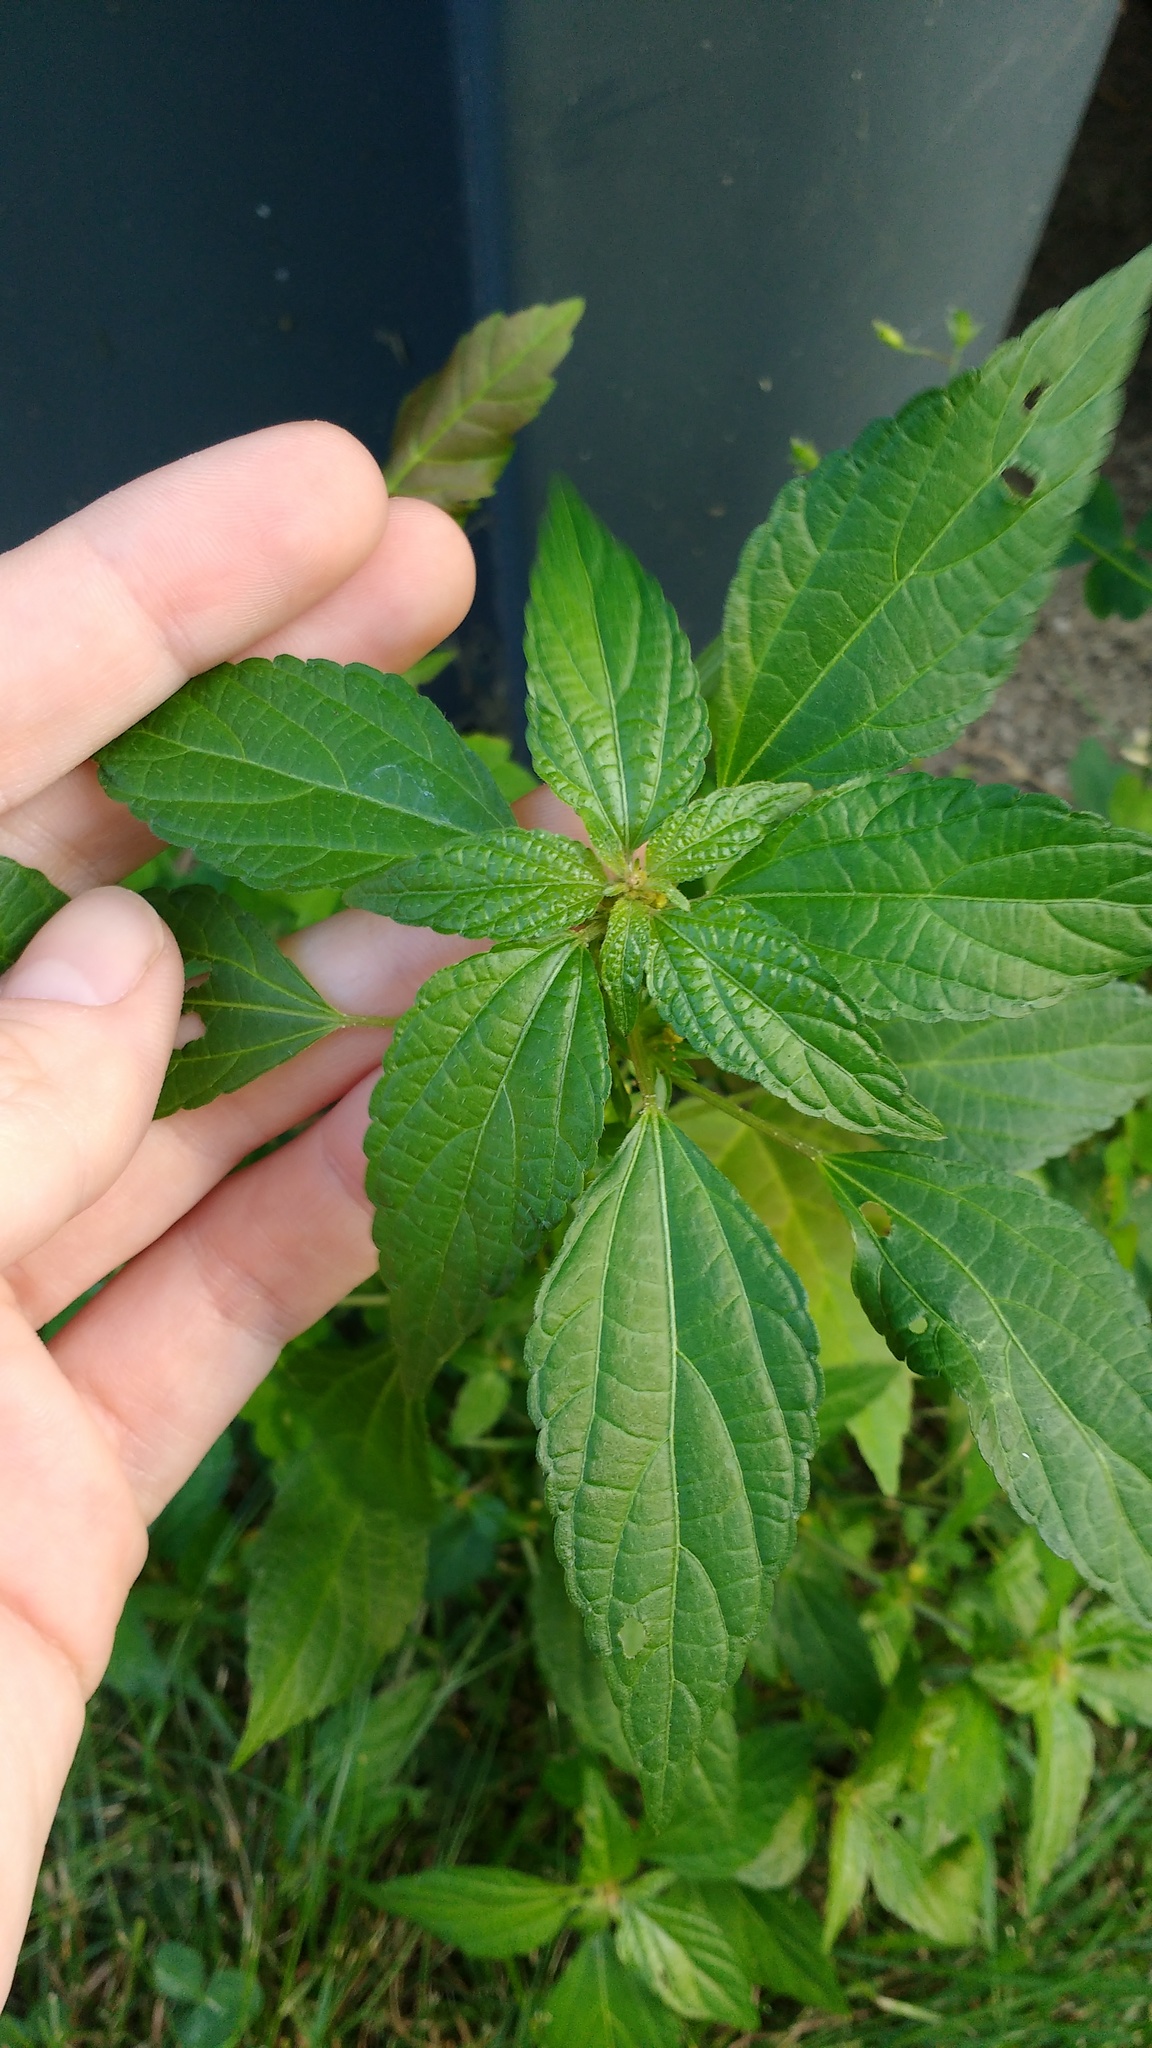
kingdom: Plantae
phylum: Tracheophyta
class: Magnoliopsida
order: Malpighiales
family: Euphorbiaceae
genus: Acalypha
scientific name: Acalypha rhomboidea
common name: Rhombic copperleaf
